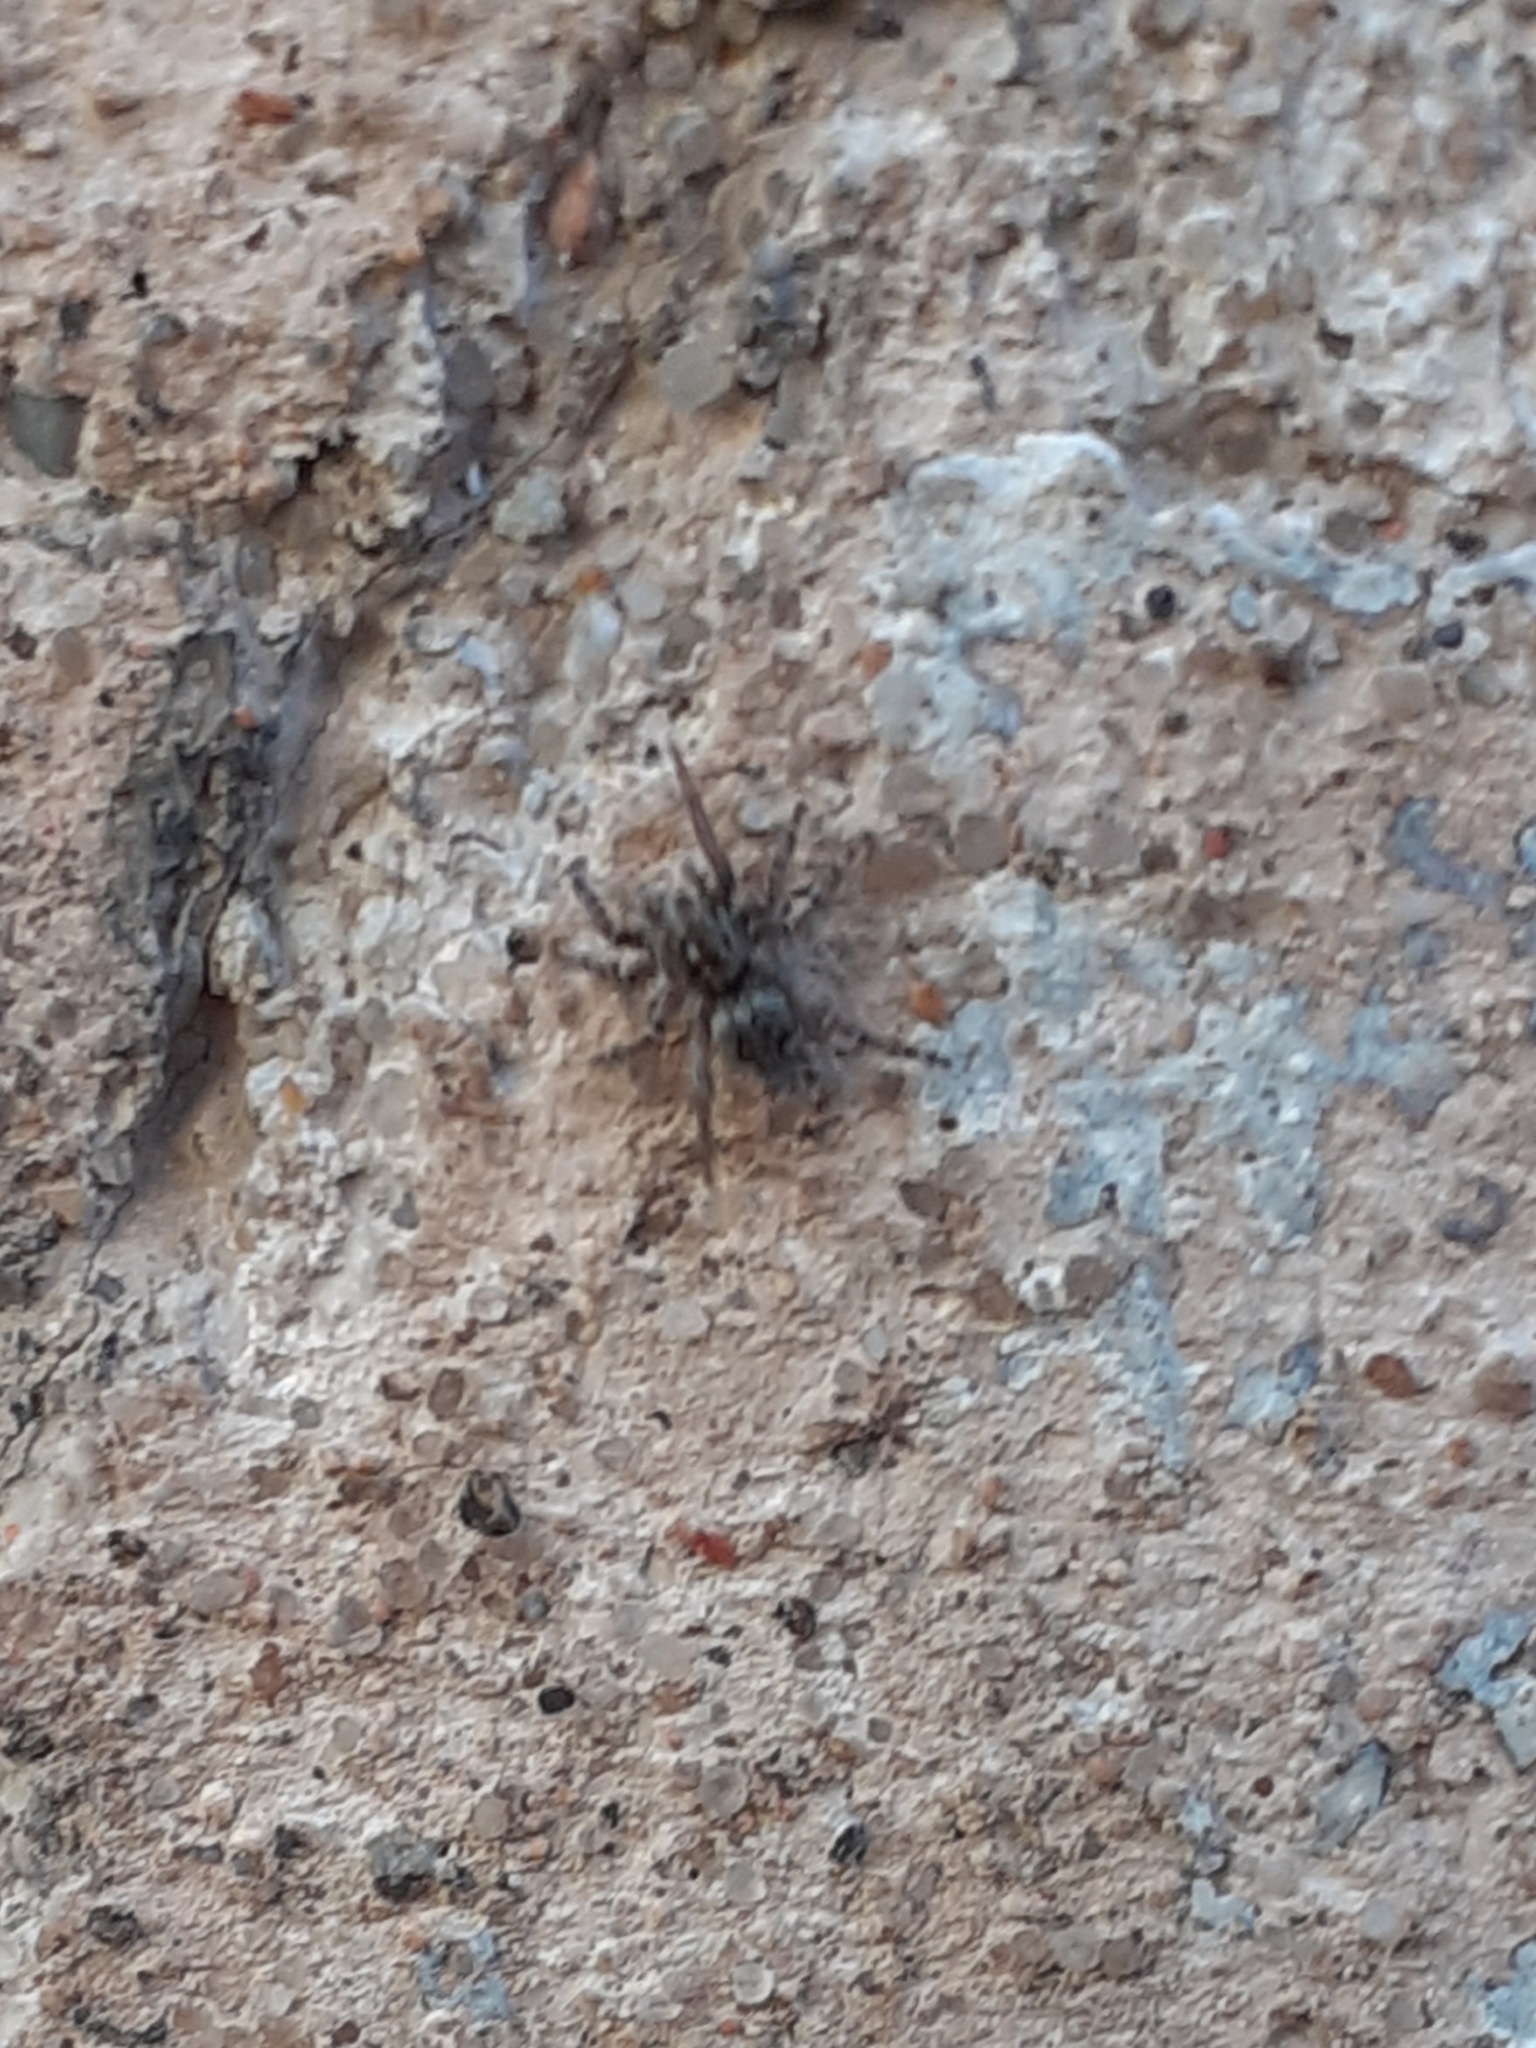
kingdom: Animalia
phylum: Arthropoda
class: Arachnida
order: Araneae
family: Salticidae
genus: Attulus
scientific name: Attulus pubescens
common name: Jumping spider
